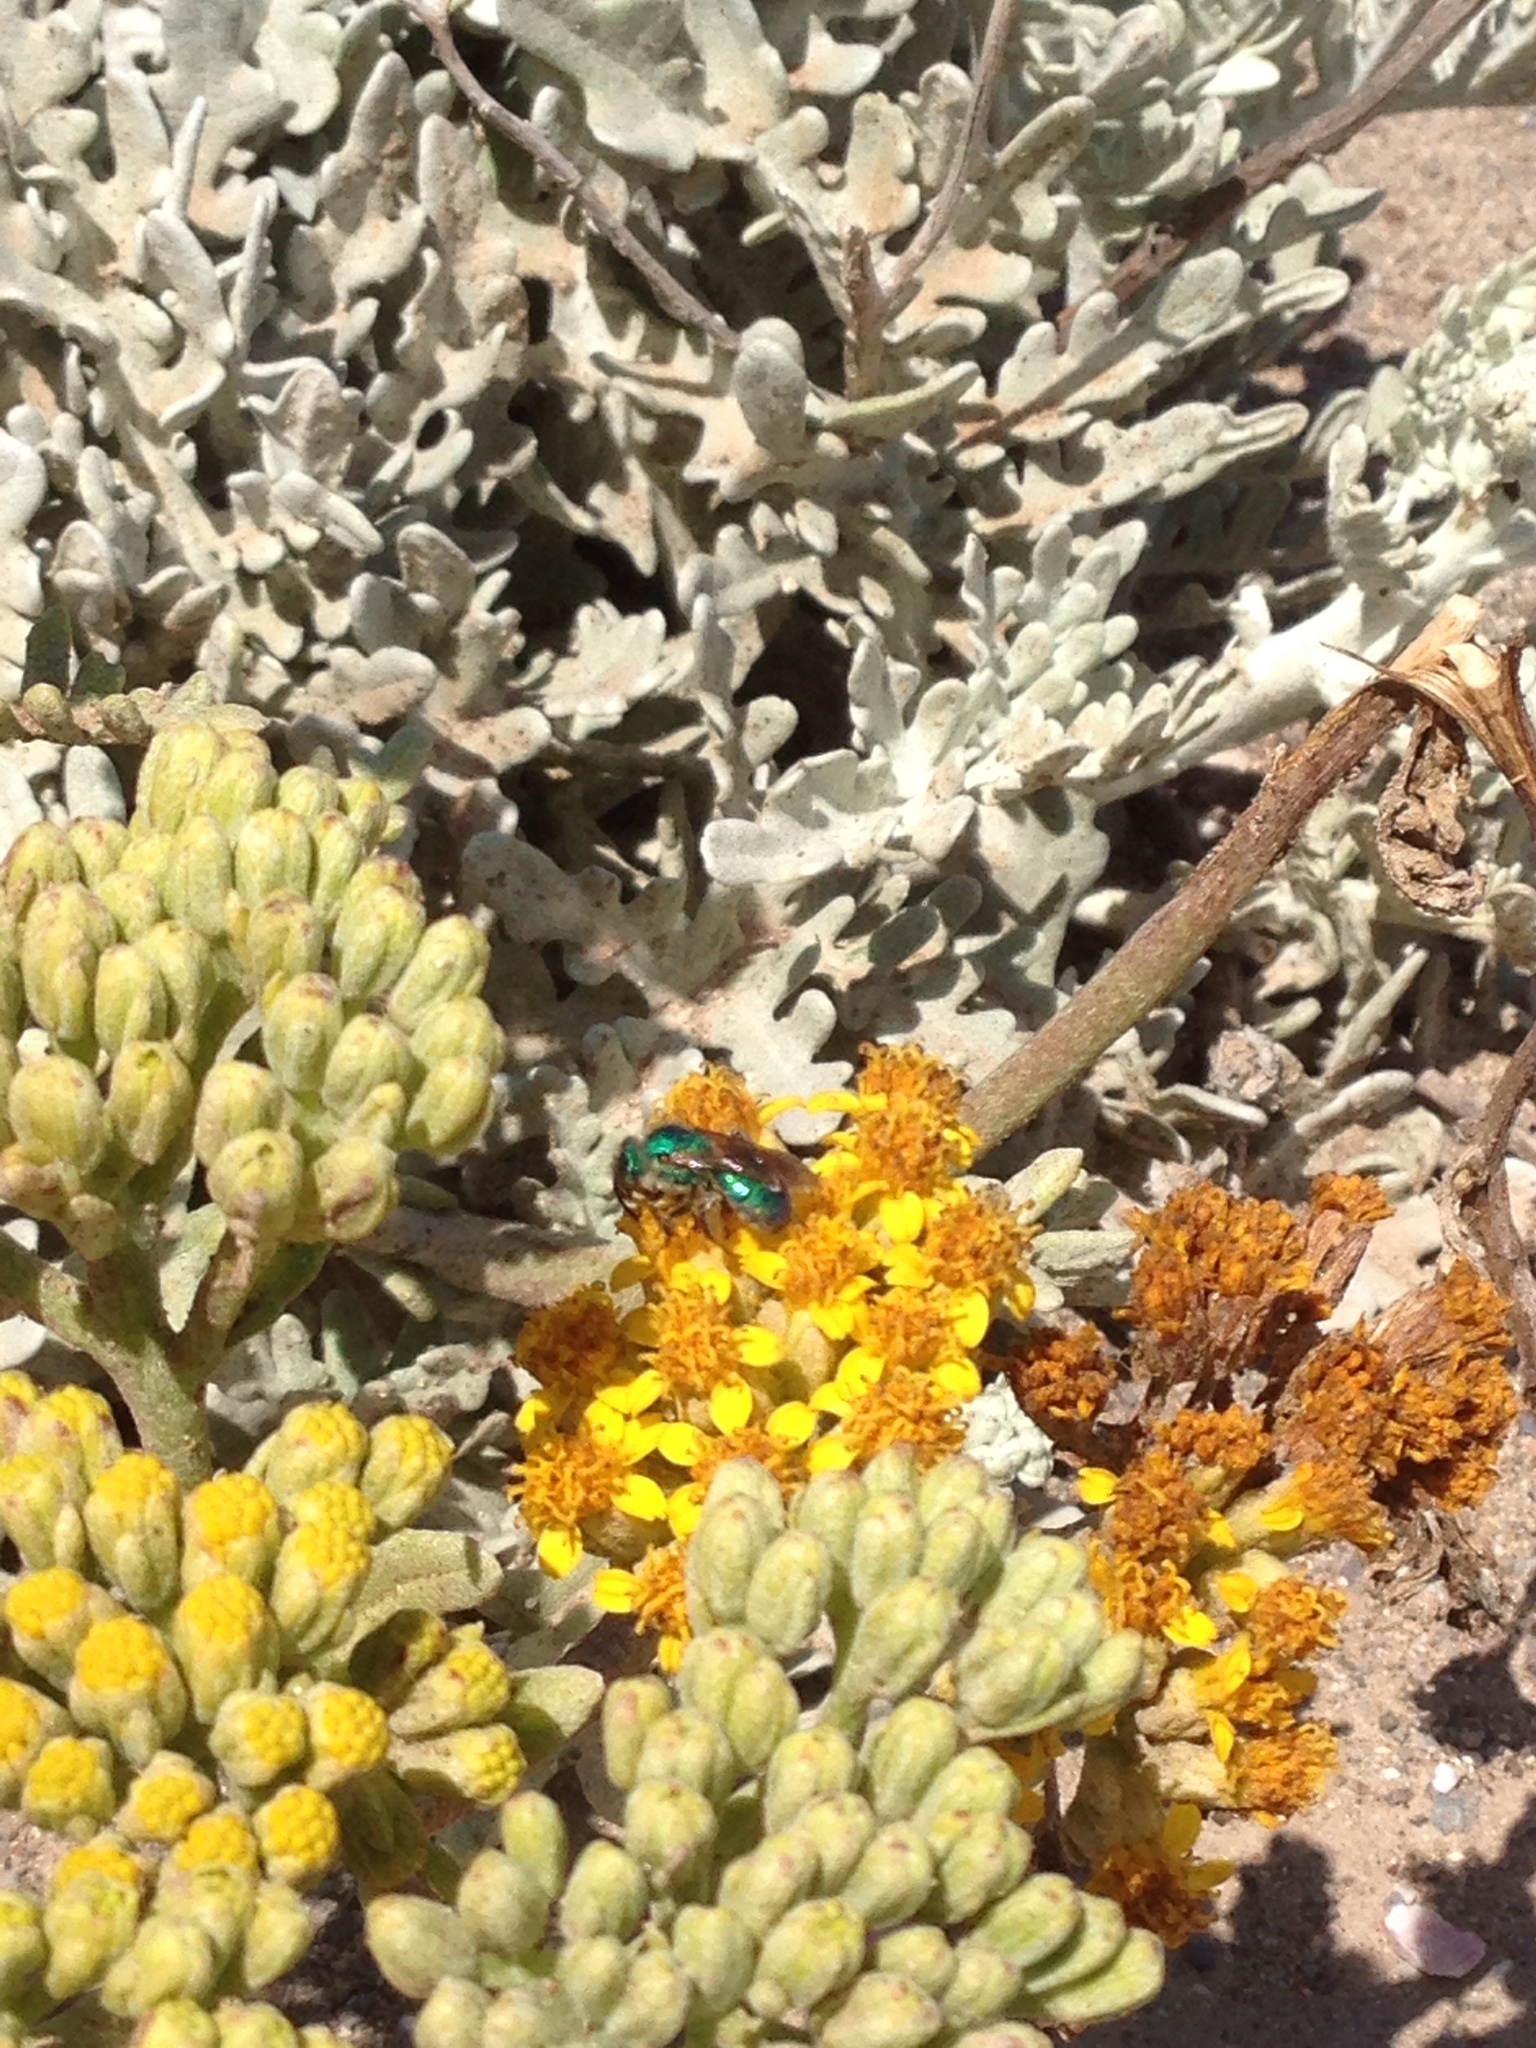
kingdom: Animalia
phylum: Arthropoda
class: Insecta
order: Hymenoptera
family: Halictidae
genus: Agapostemon
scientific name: Agapostemon texanus
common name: Texas striped sweat bee
